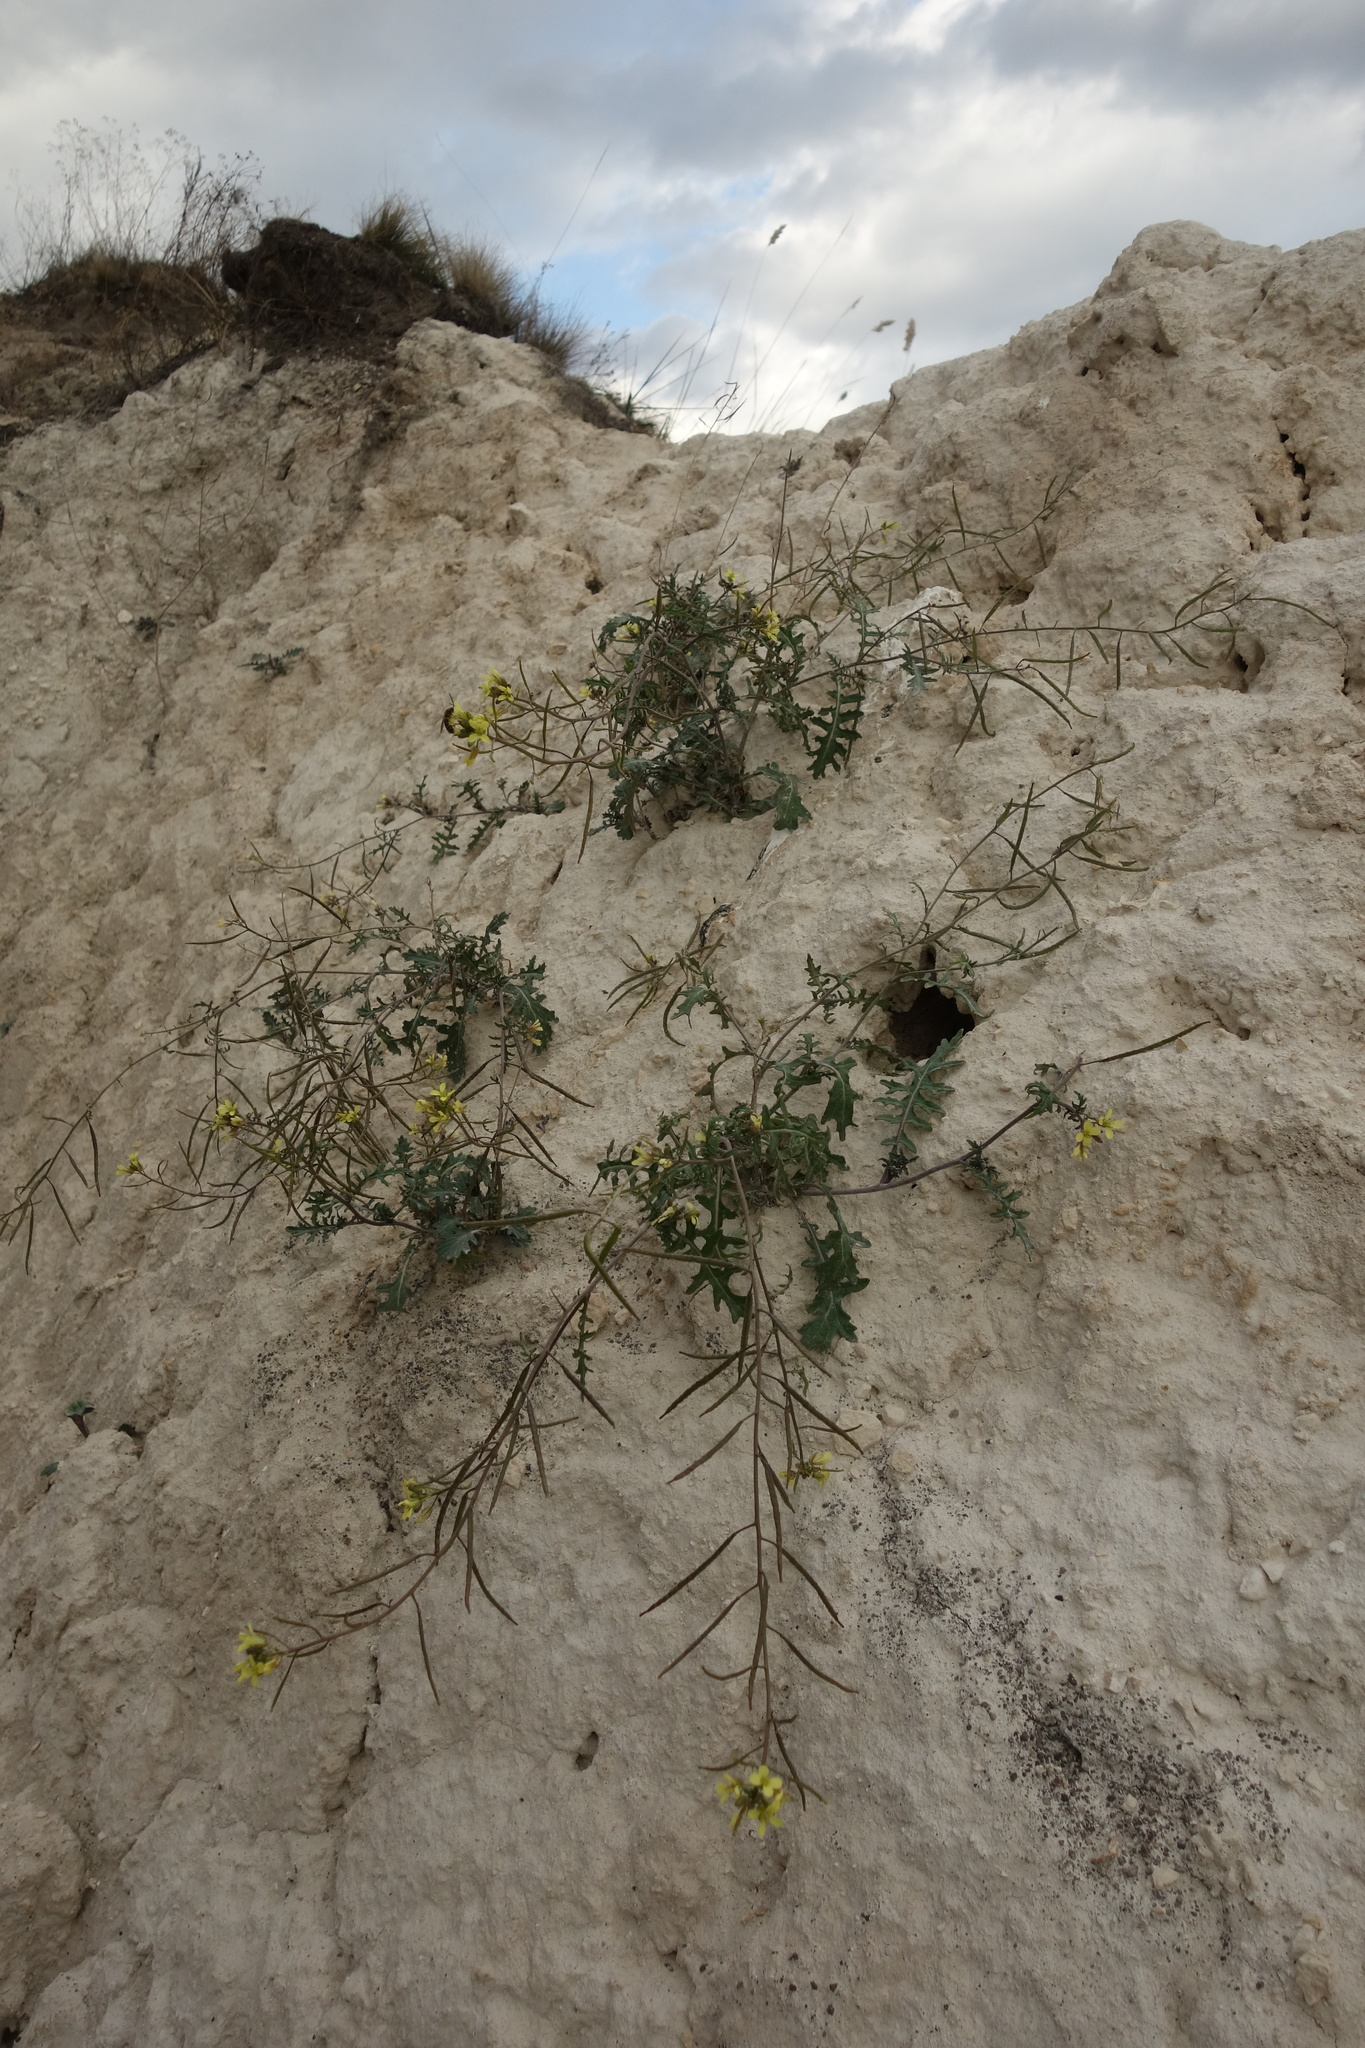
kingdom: Plantae
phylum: Tracheophyta
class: Magnoliopsida
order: Brassicales
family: Brassicaceae
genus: Erucastrum
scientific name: Erucastrum gallicum
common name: Hairy rocket
